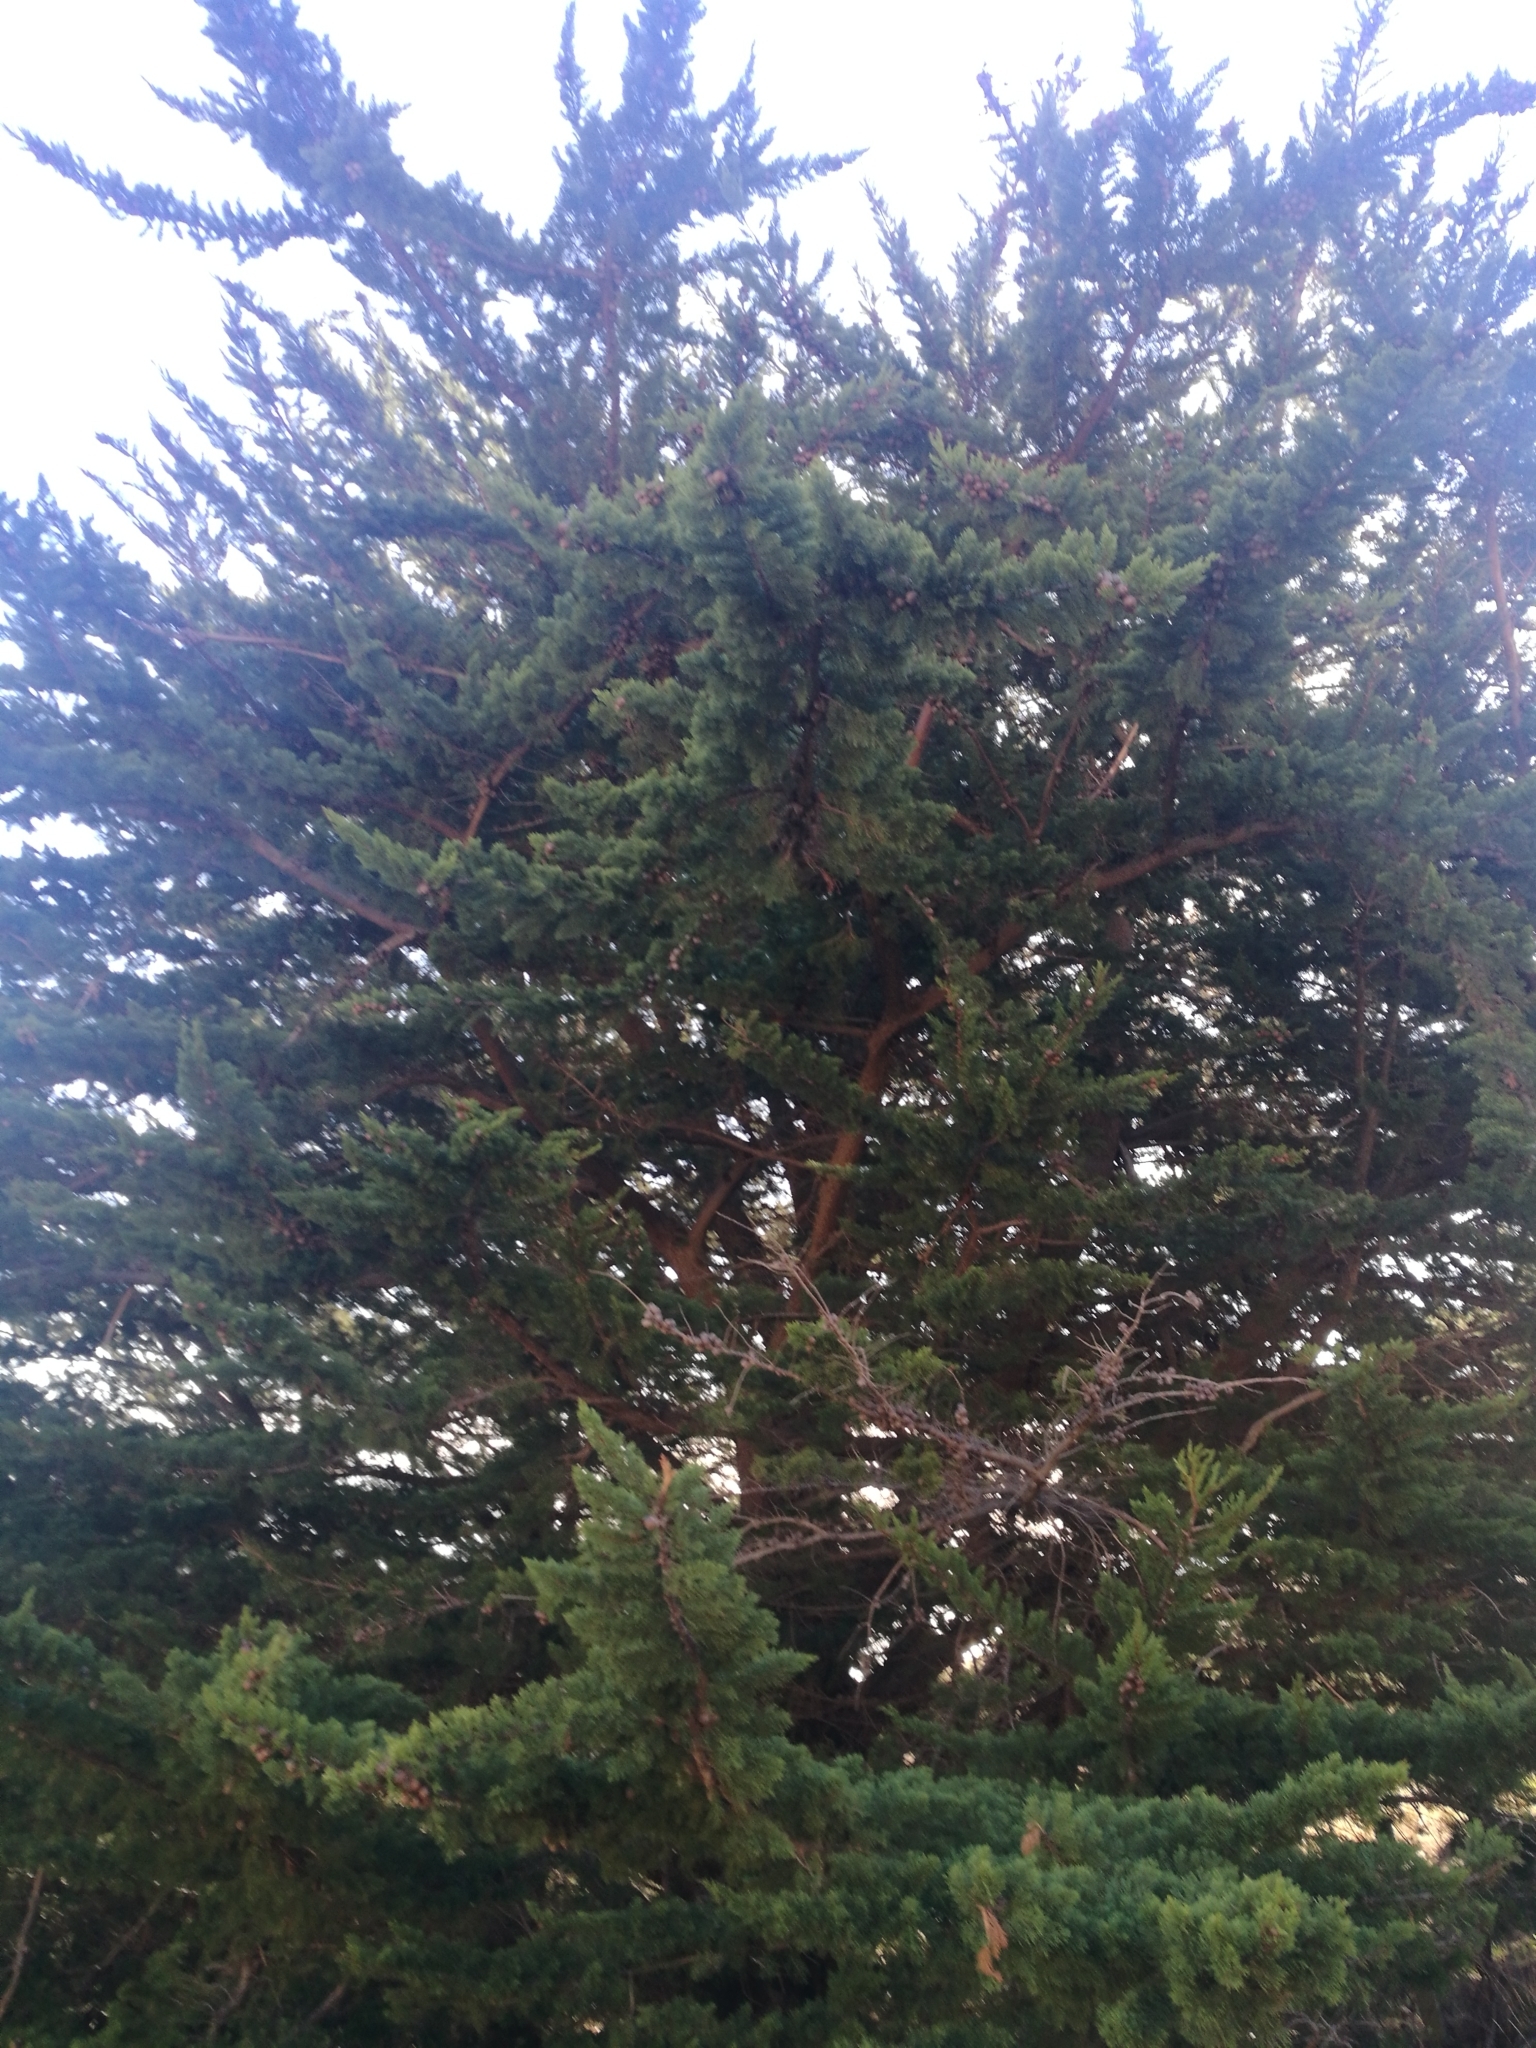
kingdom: Plantae
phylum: Tracheophyta
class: Pinopsida
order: Pinales
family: Cupressaceae
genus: Cupressus
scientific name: Cupressus macrocarpa
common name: Monterey cypress
